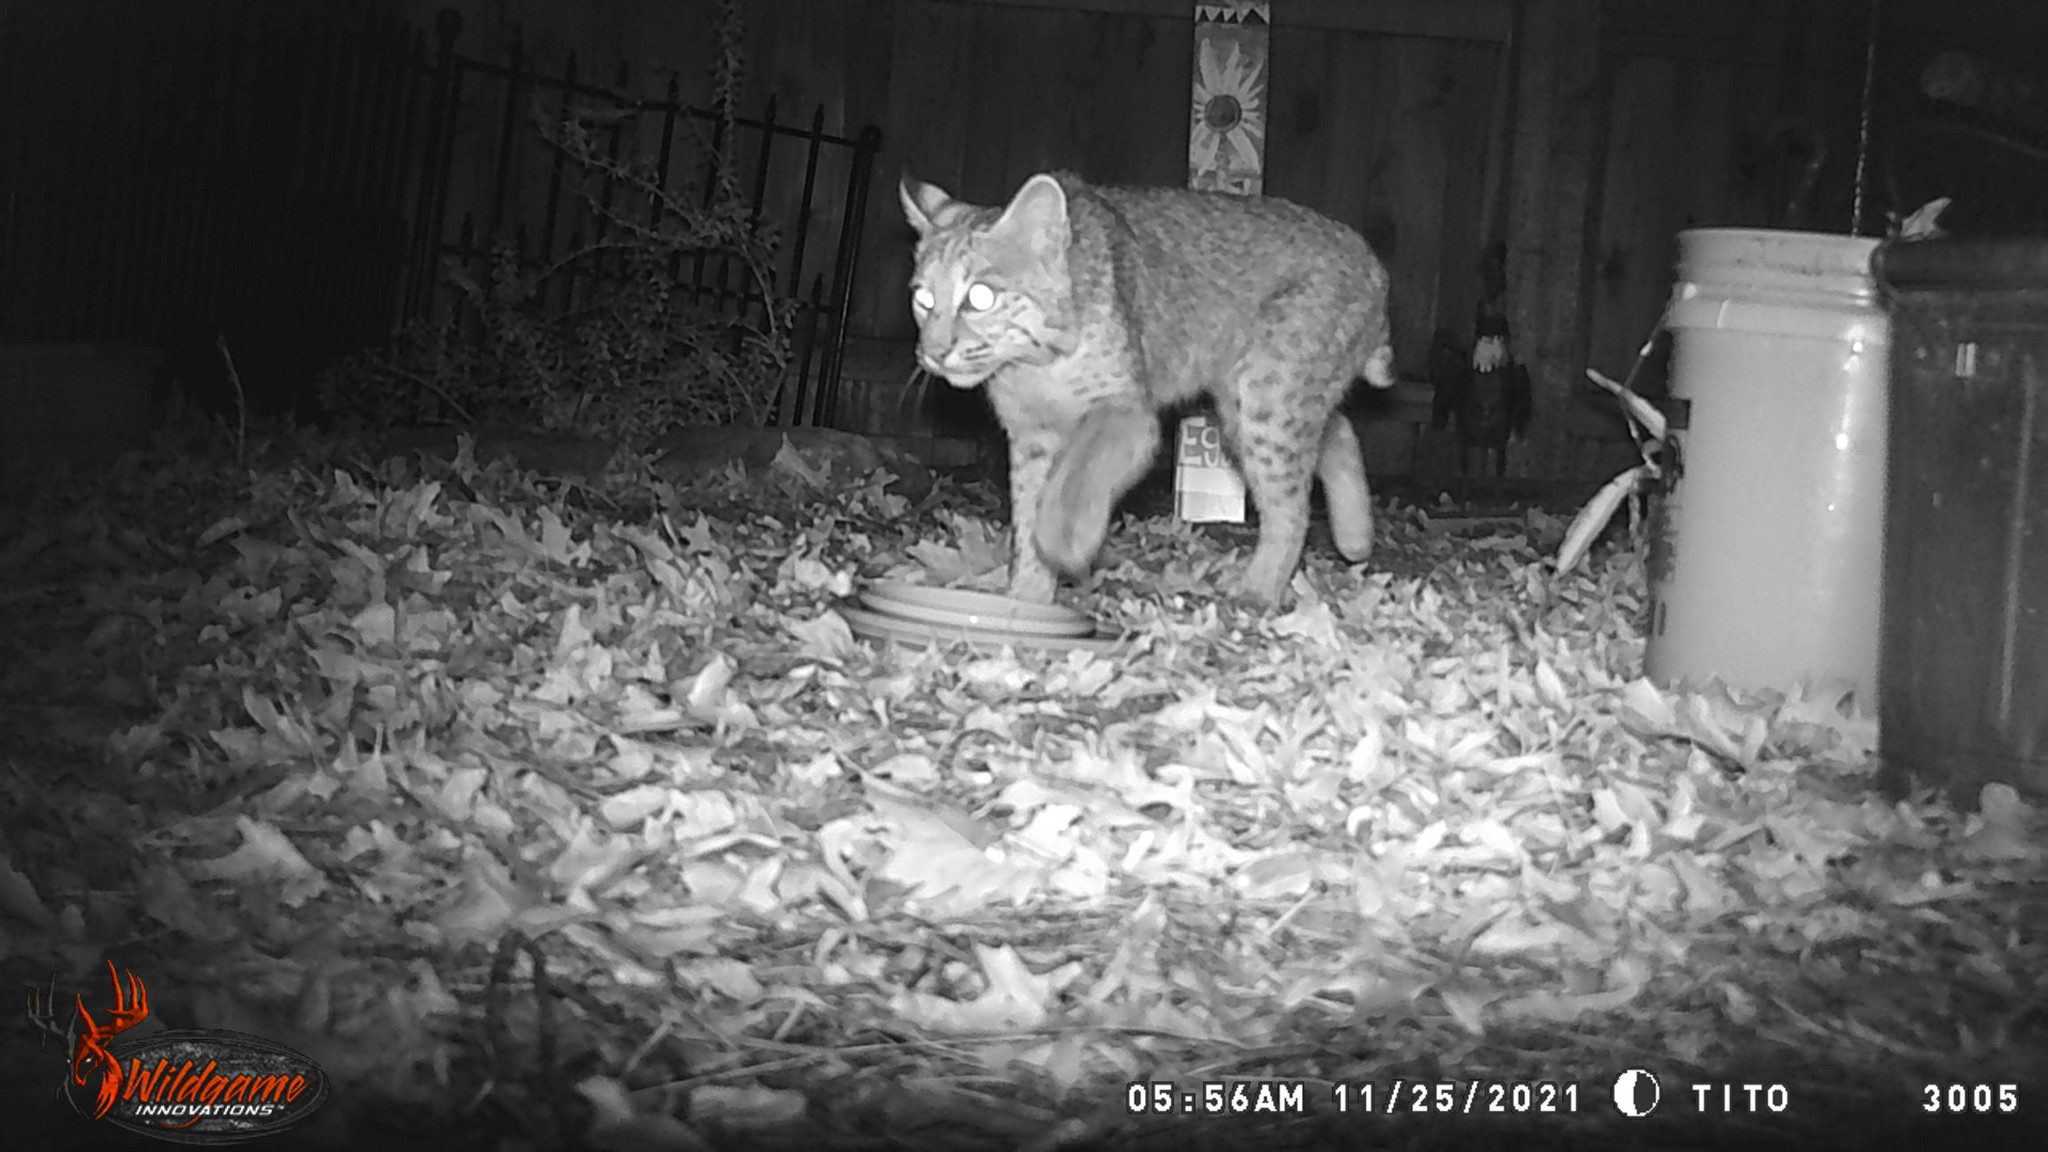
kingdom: Animalia
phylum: Chordata
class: Mammalia
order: Carnivora
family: Felidae
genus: Lynx
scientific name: Lynx rufus
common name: Bobcat
